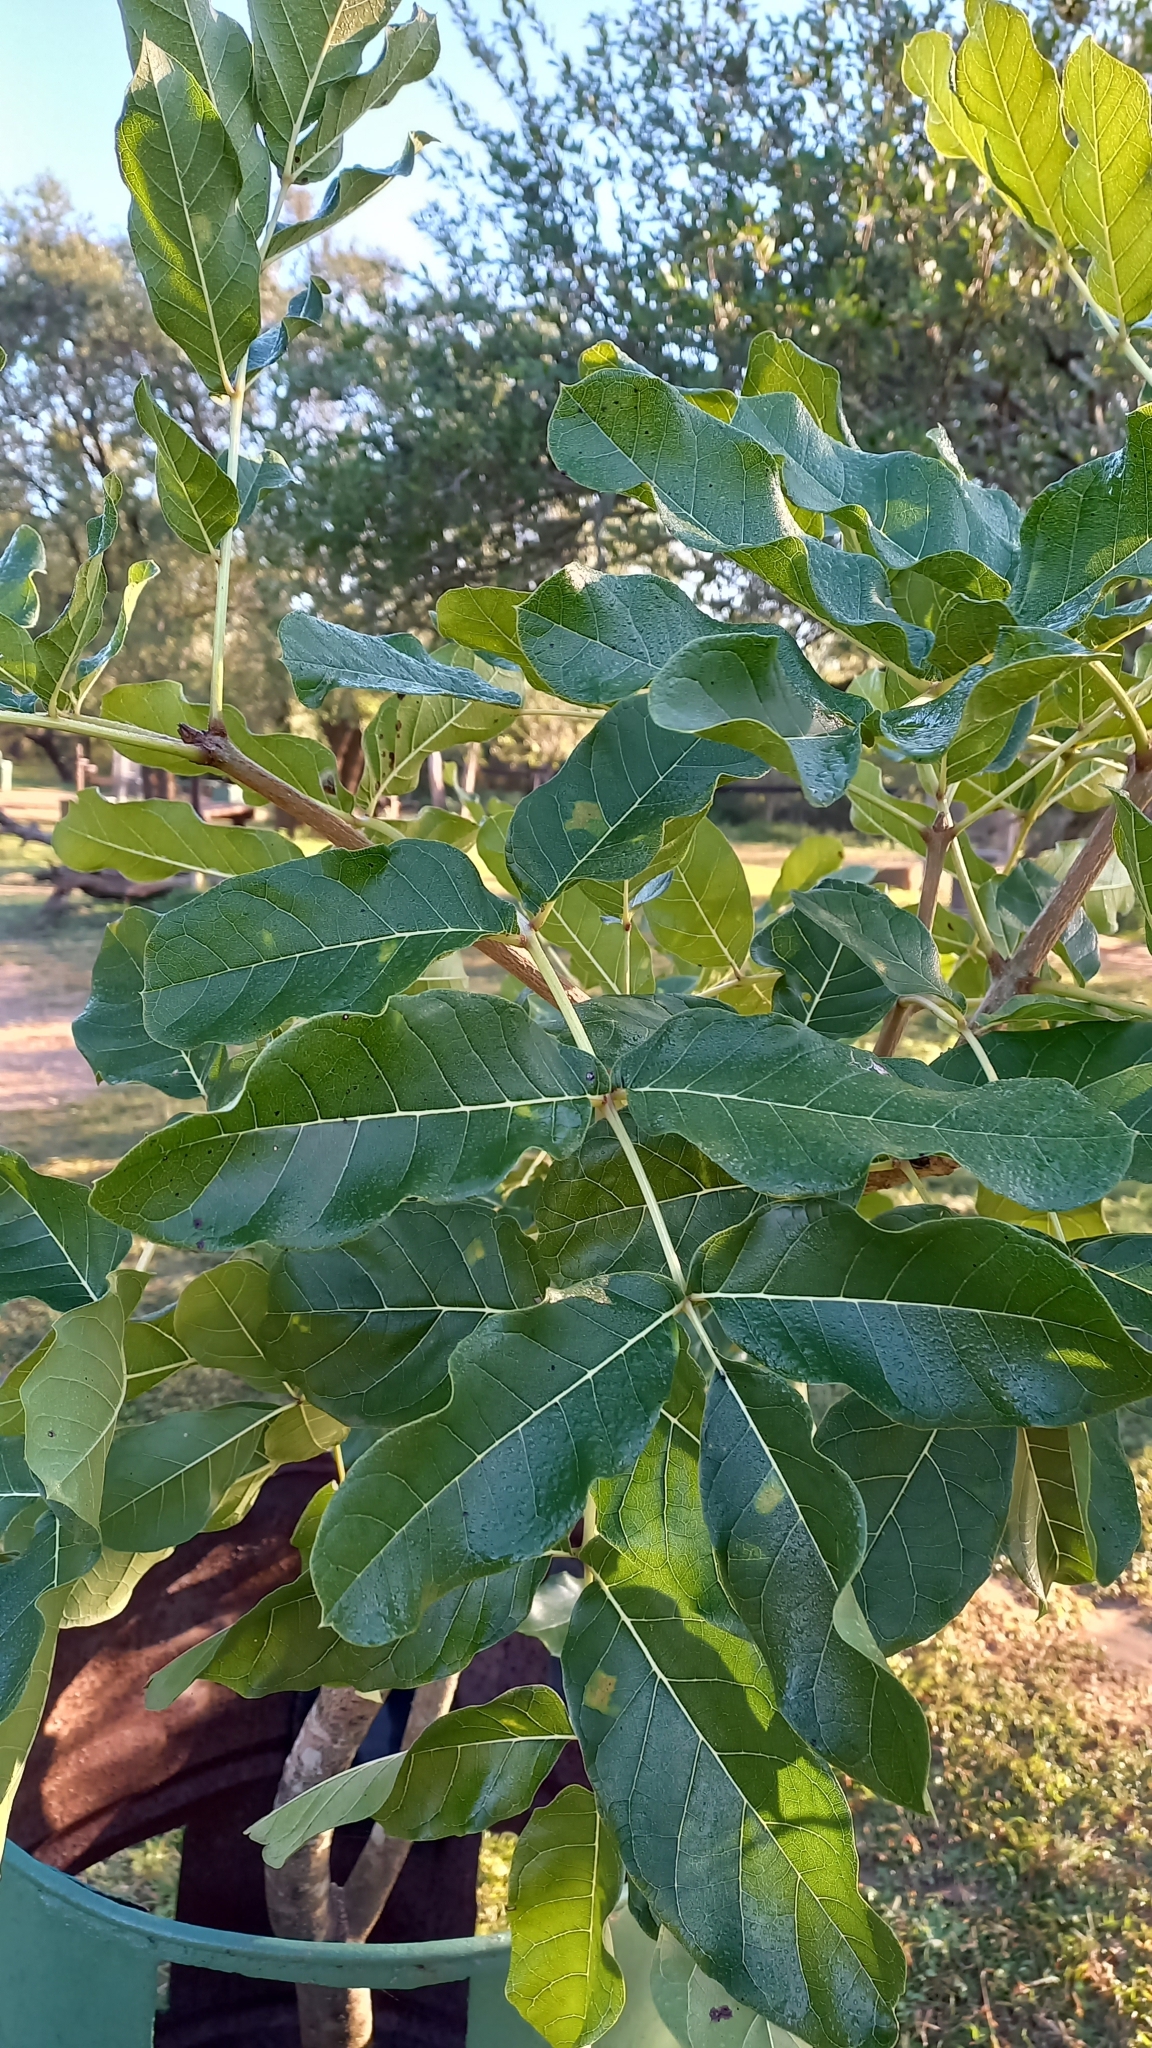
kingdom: Plantae
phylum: Tracheophyta
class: Magnoliopsida
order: Lamiales
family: Bignoniaceae
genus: Kigelia
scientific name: Kigelia africana
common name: Sausage tree
